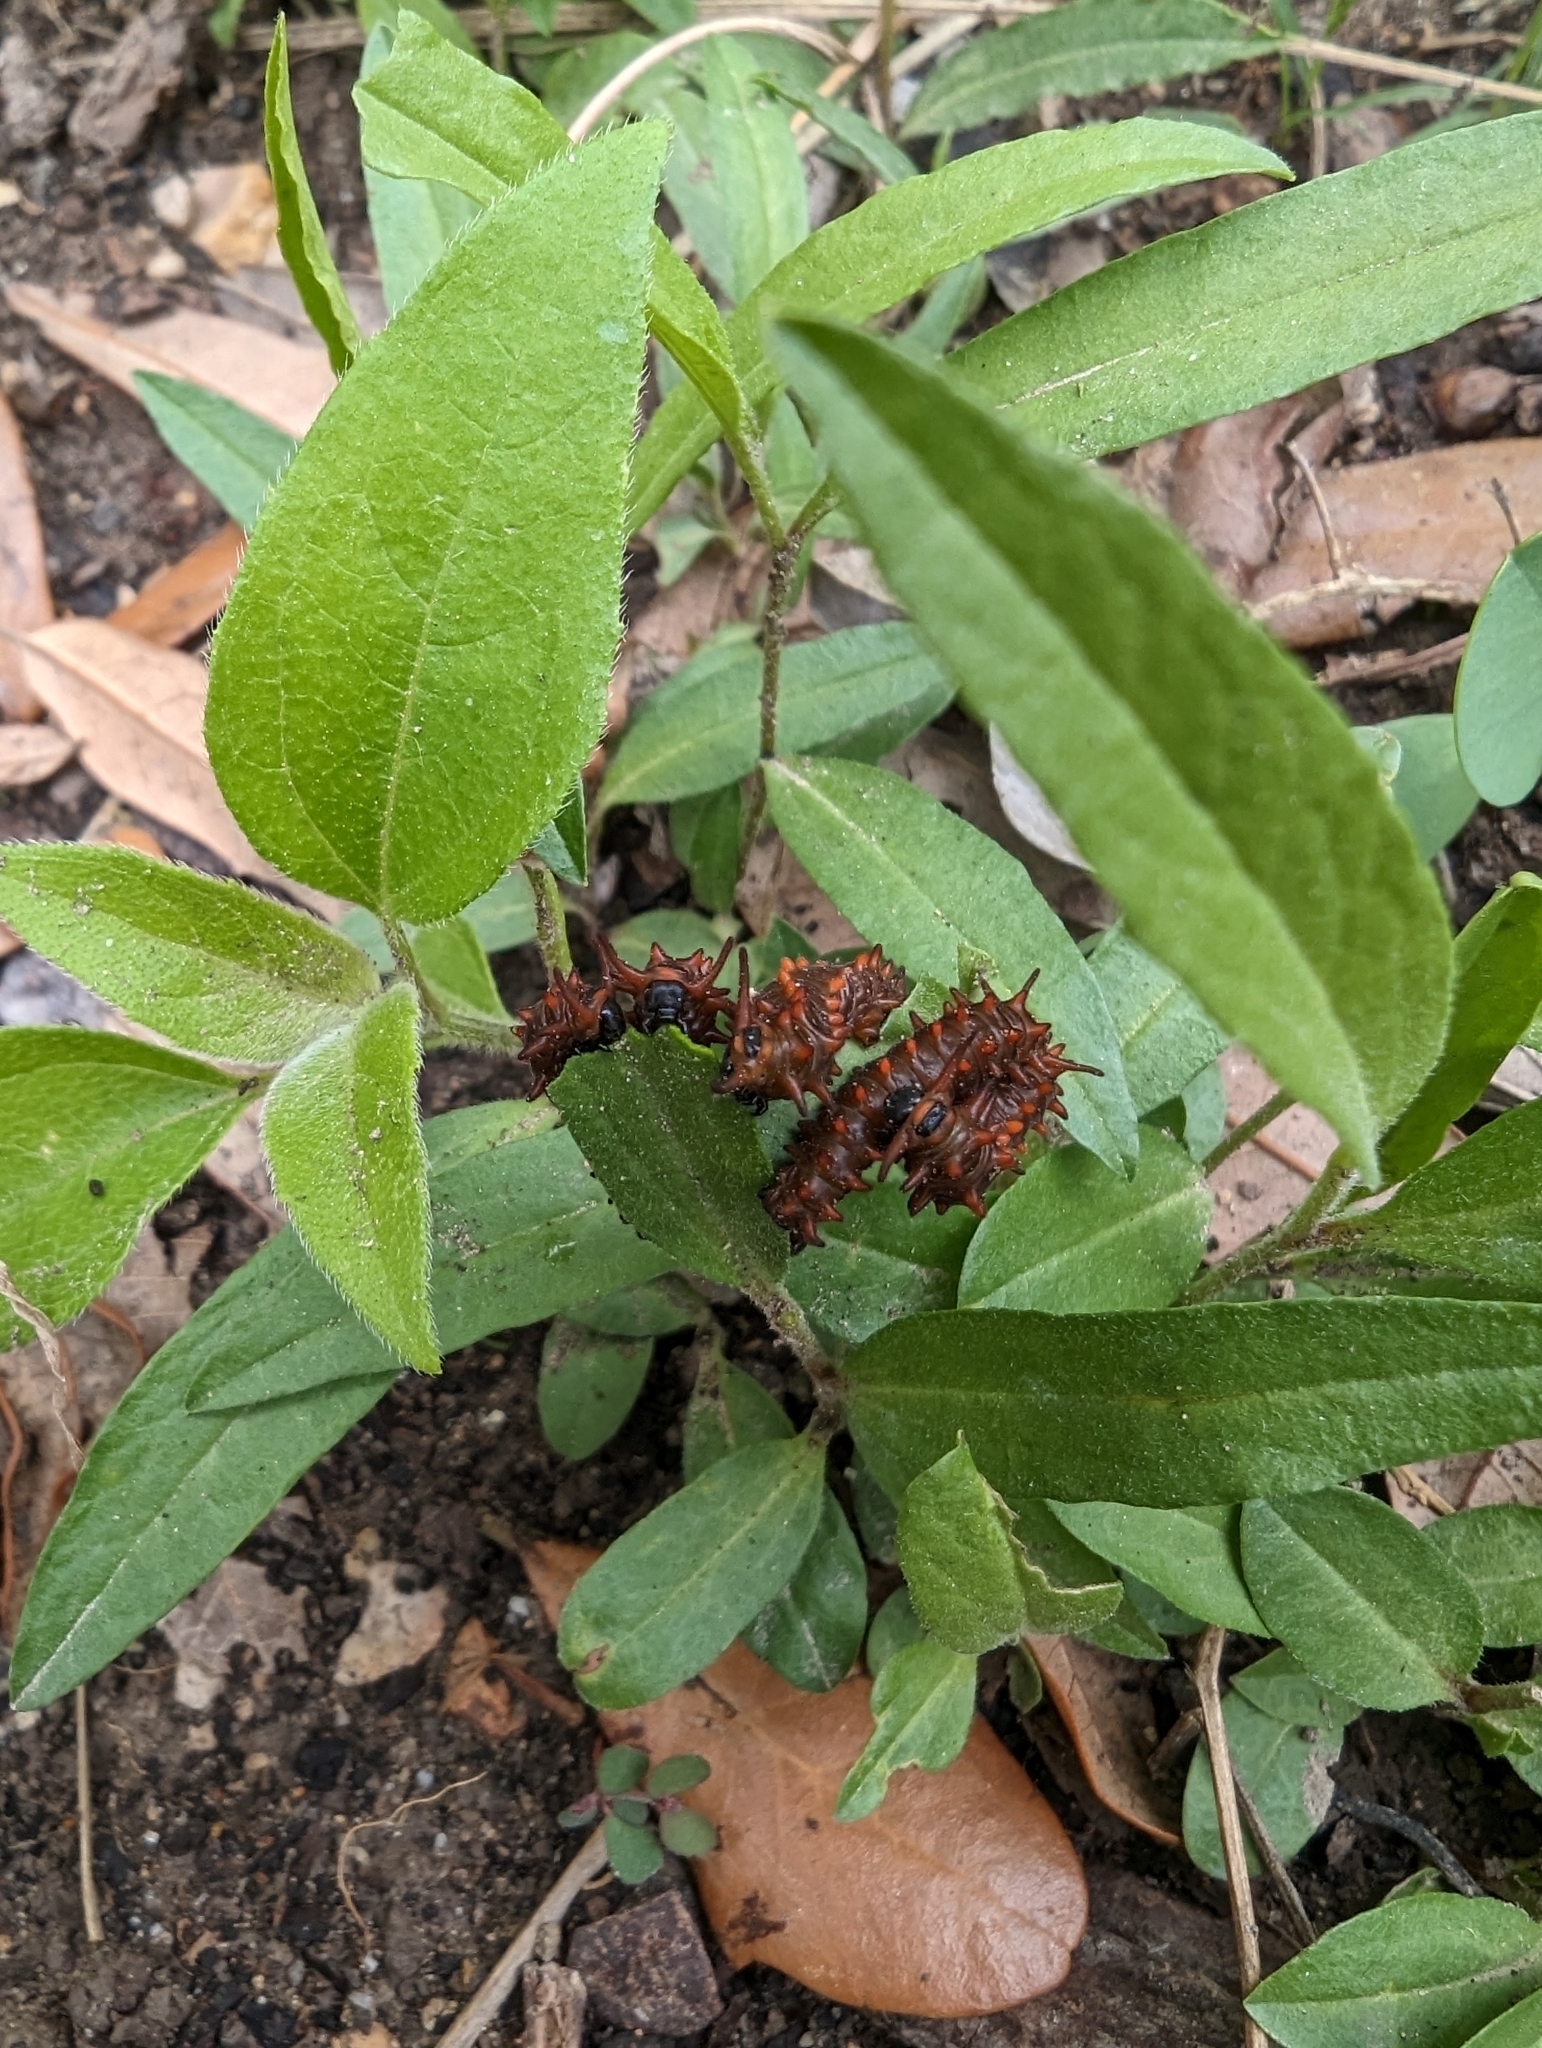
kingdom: Animalia
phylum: Arthropoda
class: Insecta
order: Lepidoptera
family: Papilionidae
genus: Battus
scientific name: Battus philenor
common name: Pipevine swallowtail
